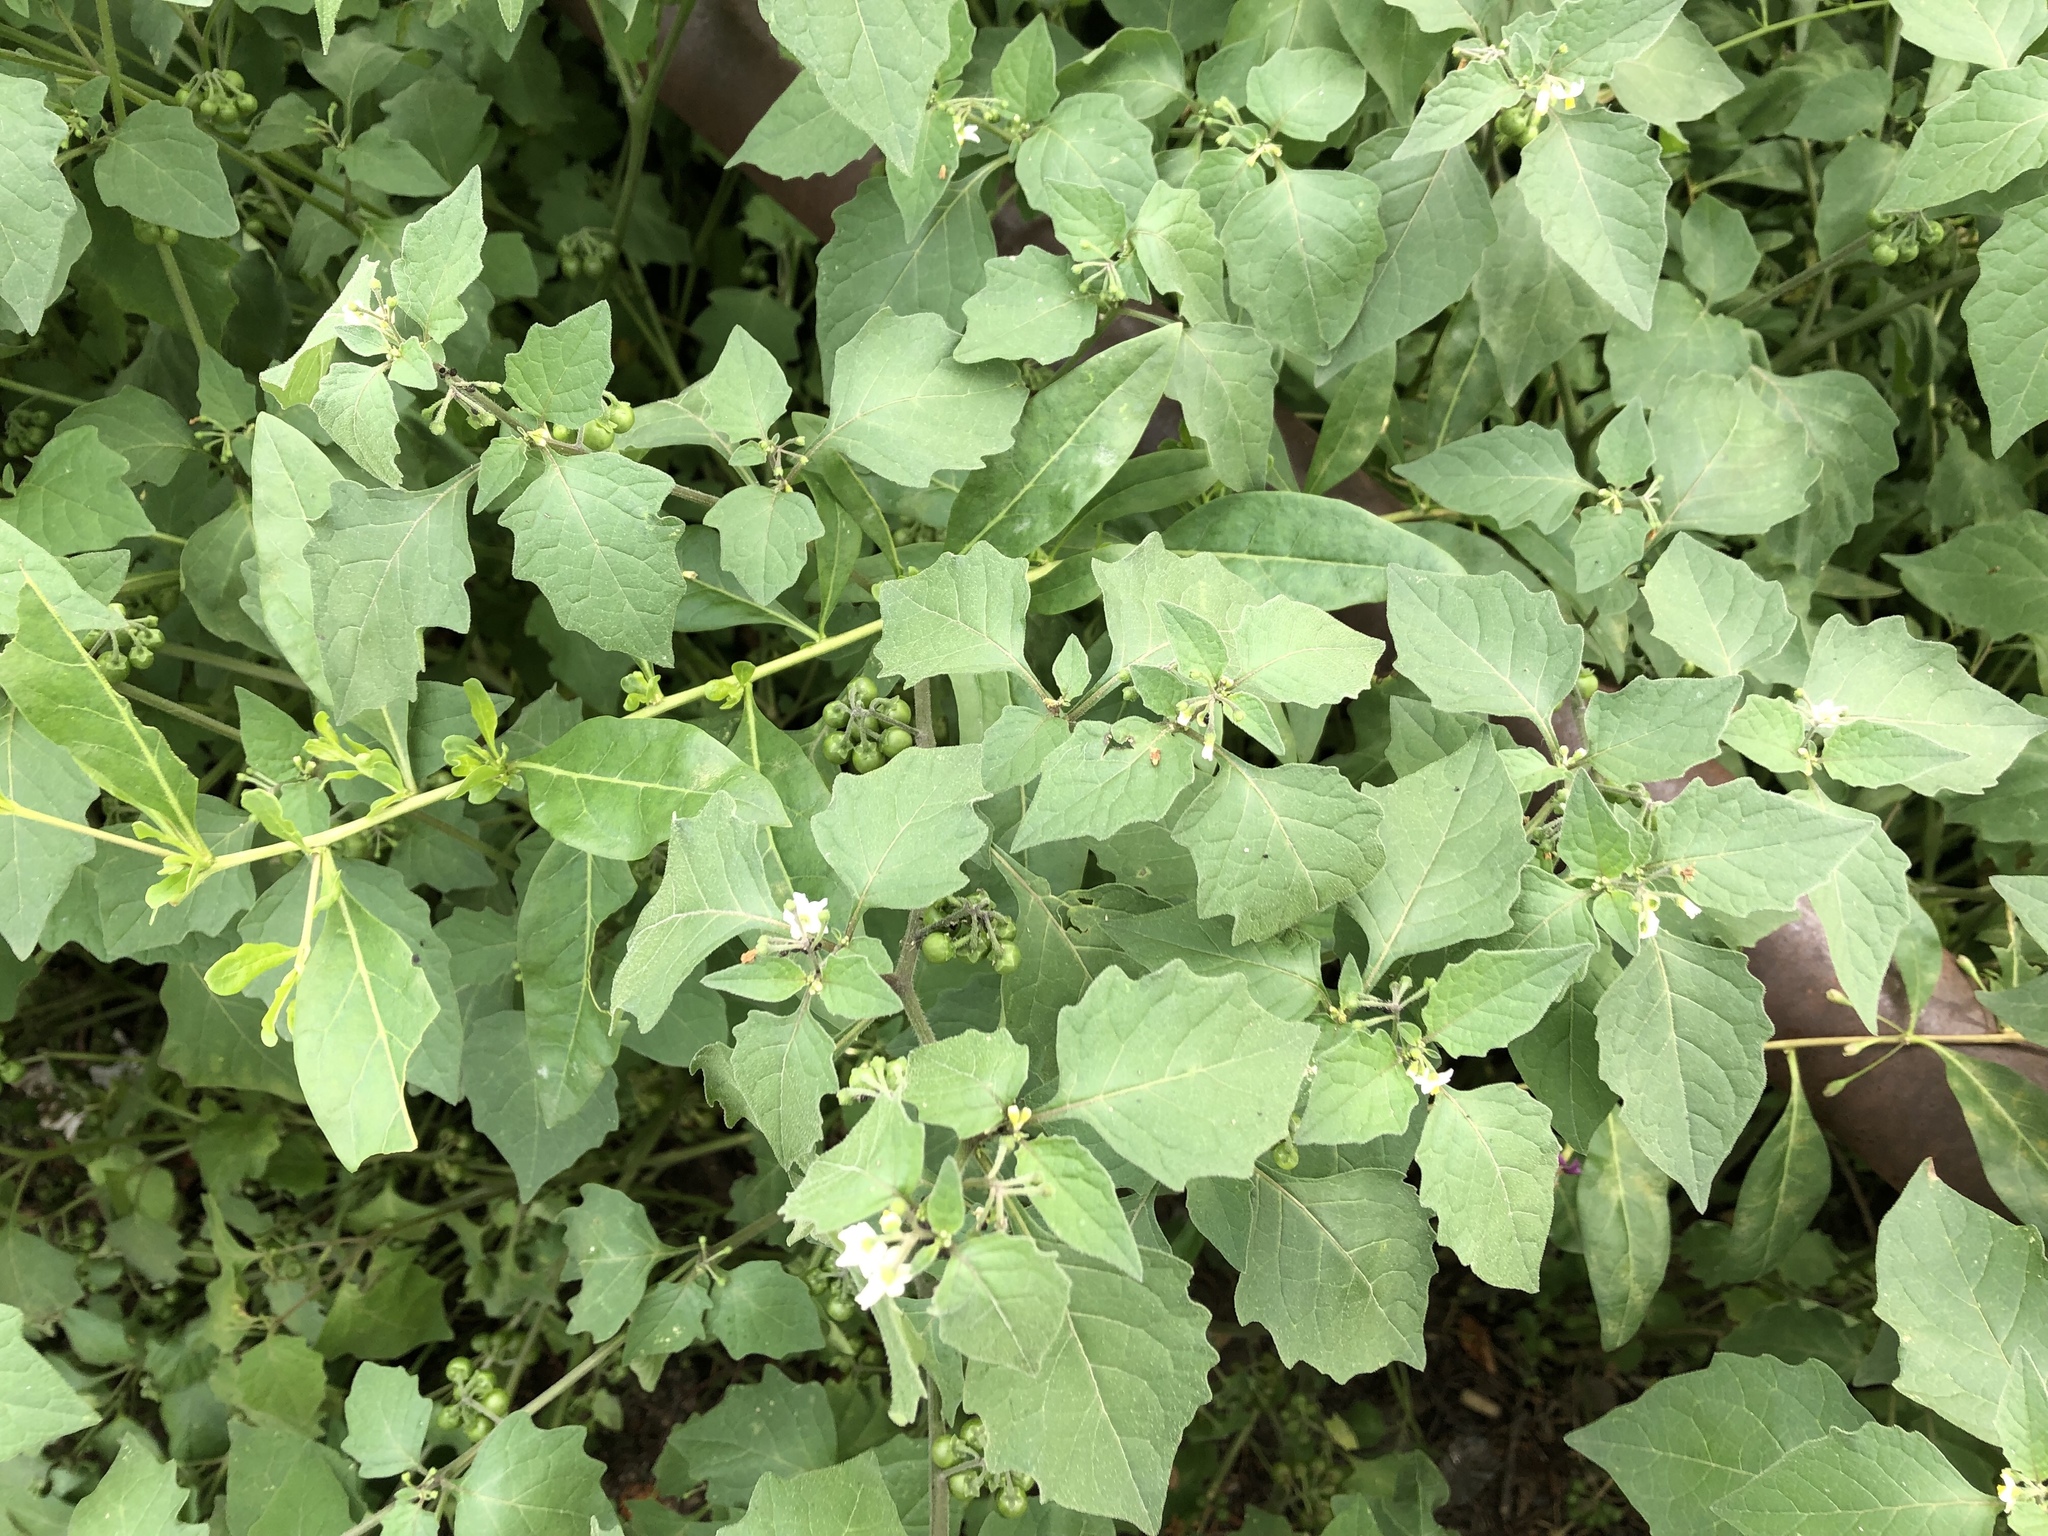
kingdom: Plantae
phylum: Tracheophyta
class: Magnoliopsida
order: Solanales
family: Solanaceae
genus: Solanum
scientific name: Solanum decipiens
